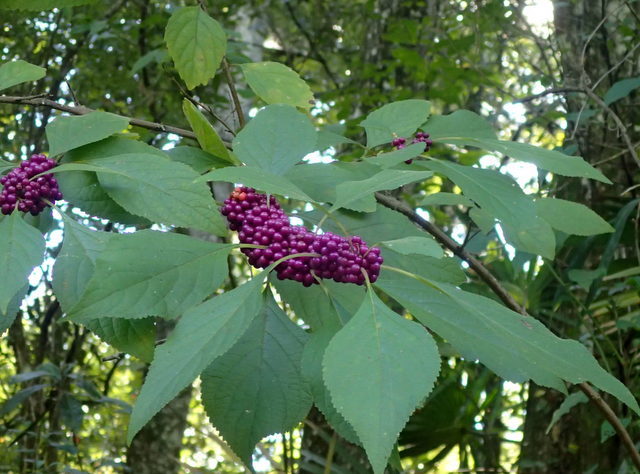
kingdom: Plantae
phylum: Tracheophyta
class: Magnoliopsida
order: Lamiales
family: Lamiaceae
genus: Callicarpa
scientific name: Callicarpa americana
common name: American beautyberry
